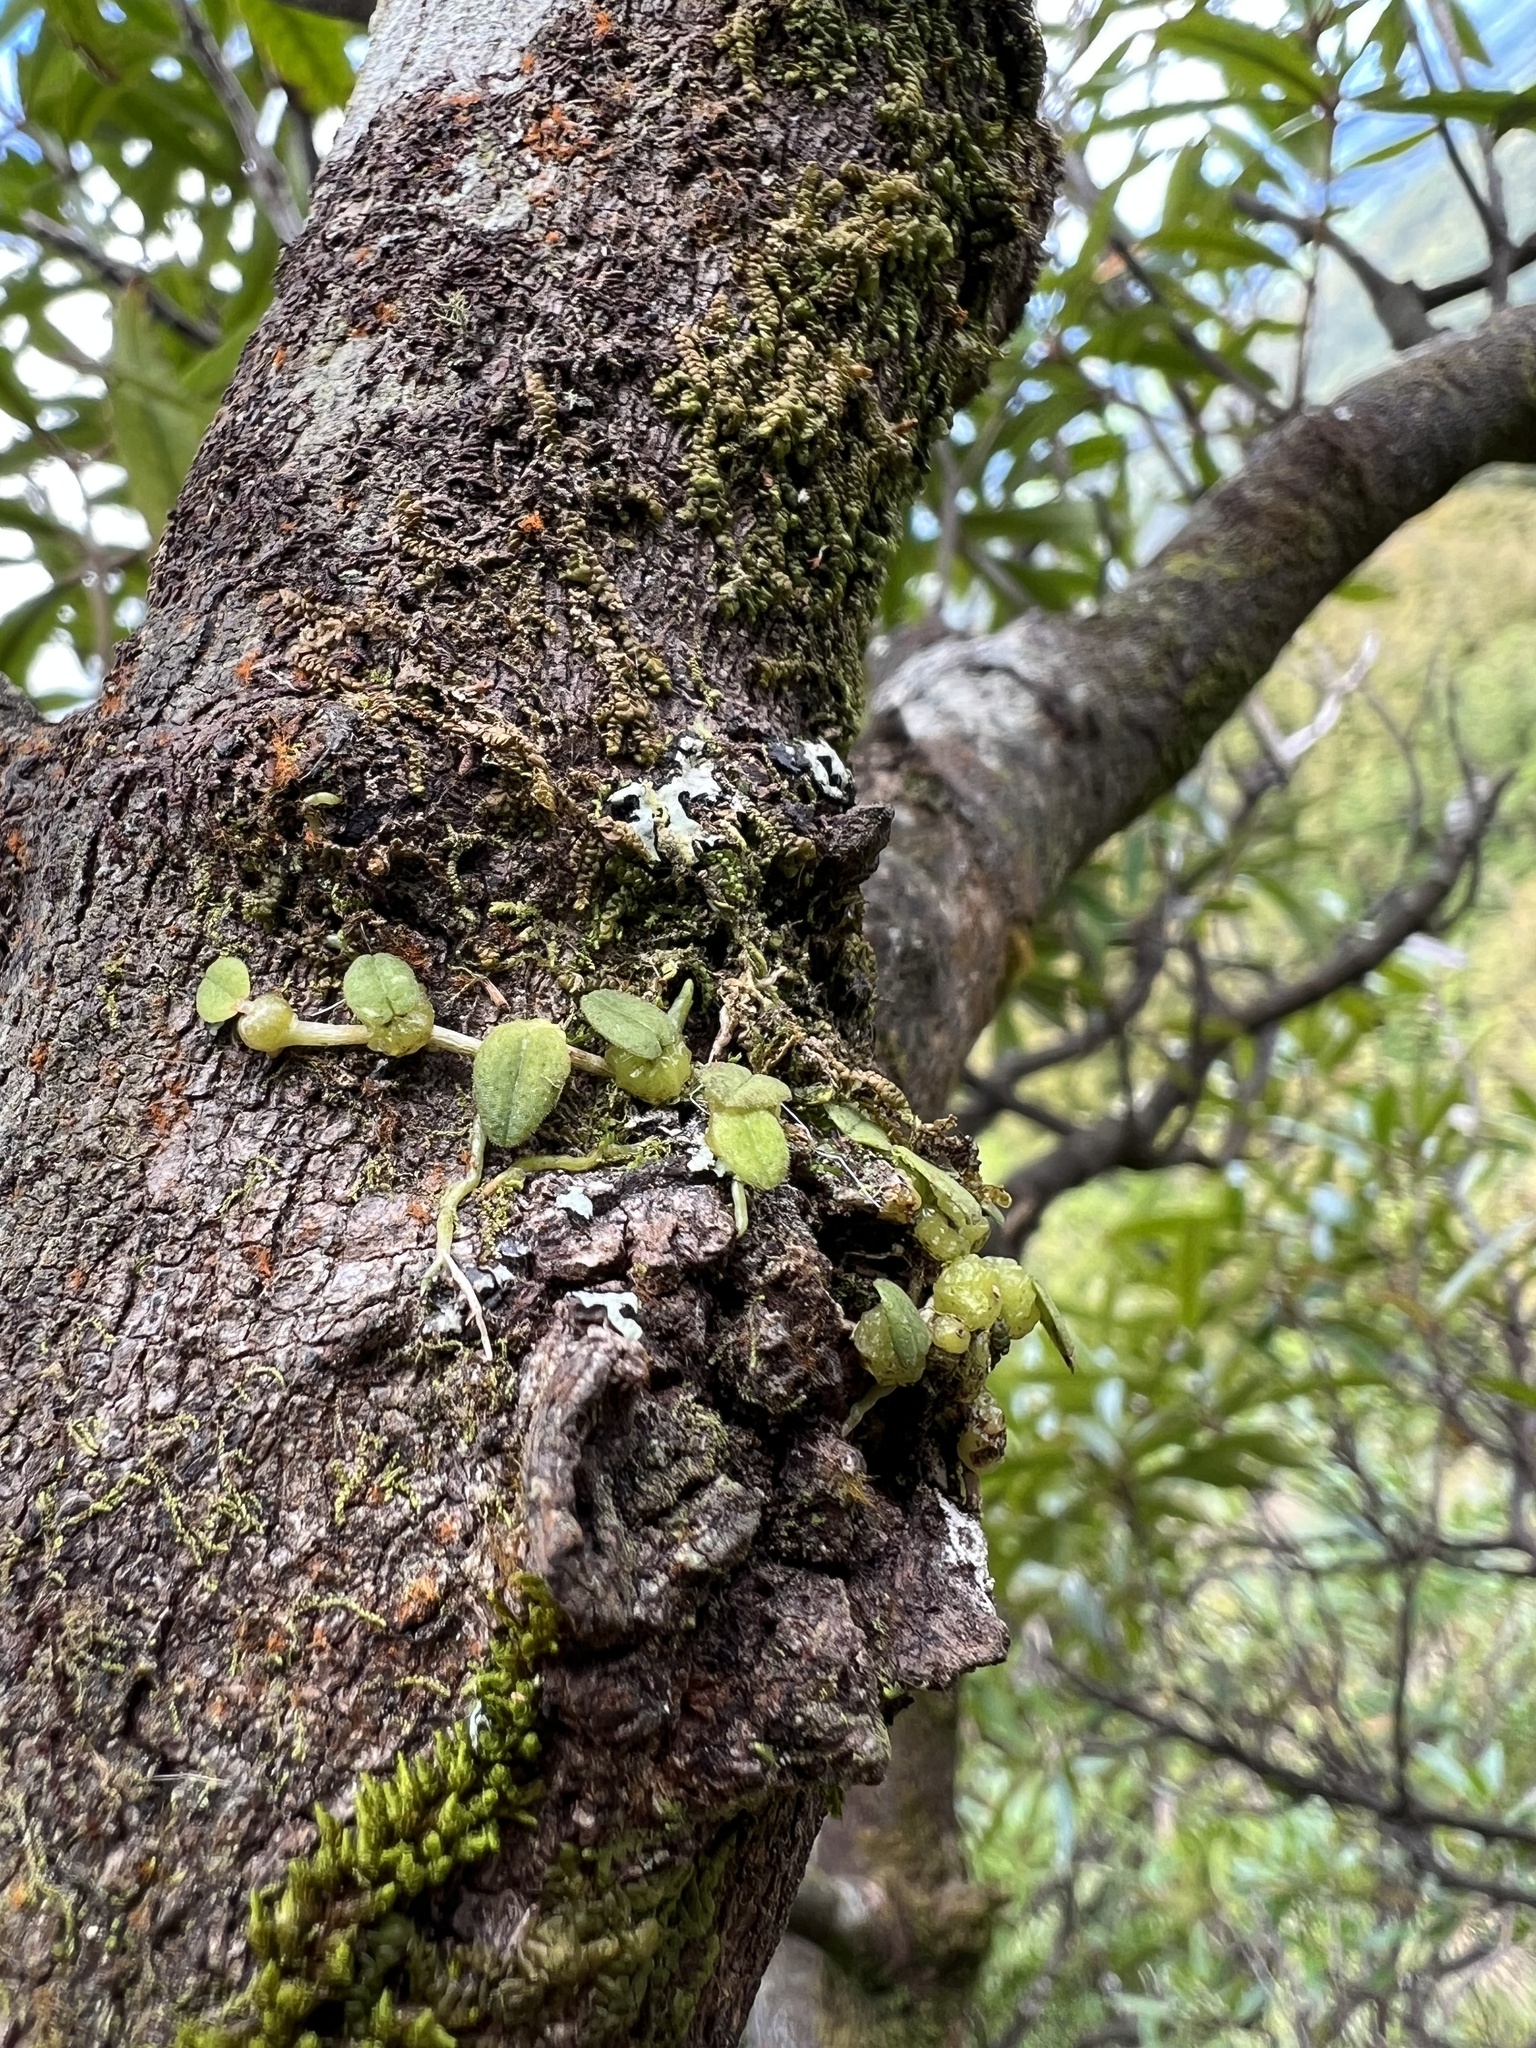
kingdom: Plantae
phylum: Tracheophyta
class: Liliopsida
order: Asparagales
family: Orchidaceae
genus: Bulbophyllum
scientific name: Bulbophyllum pygmaeum
